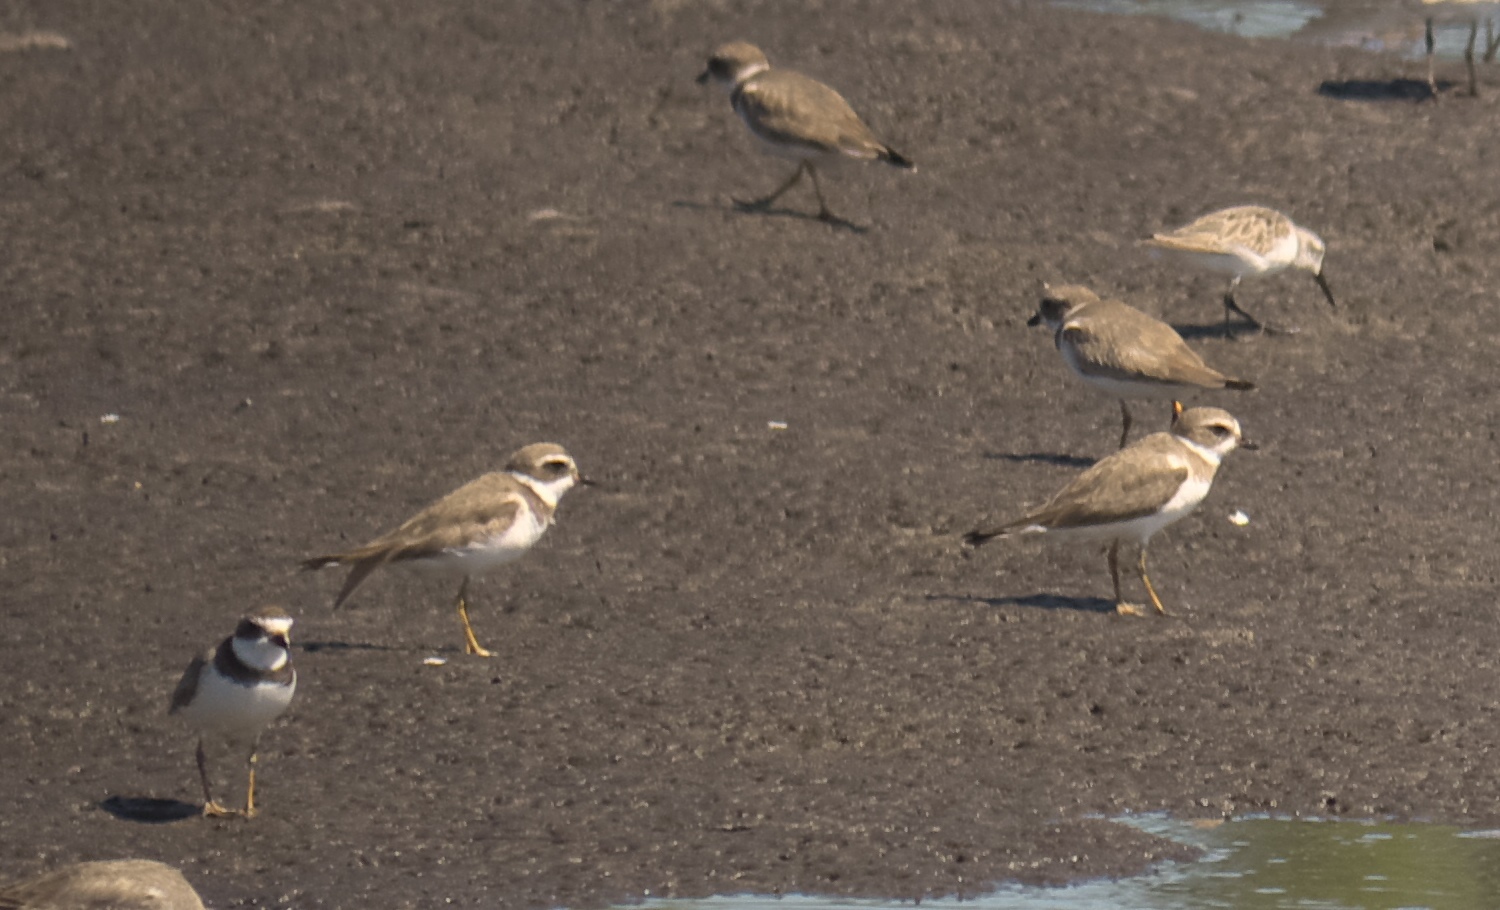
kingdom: Animalia
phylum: Chordata
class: Aves
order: Charadriiformes
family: Charadriidae
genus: Charadrius
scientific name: Charadrius semipalmatus
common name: Semipalmated plover
